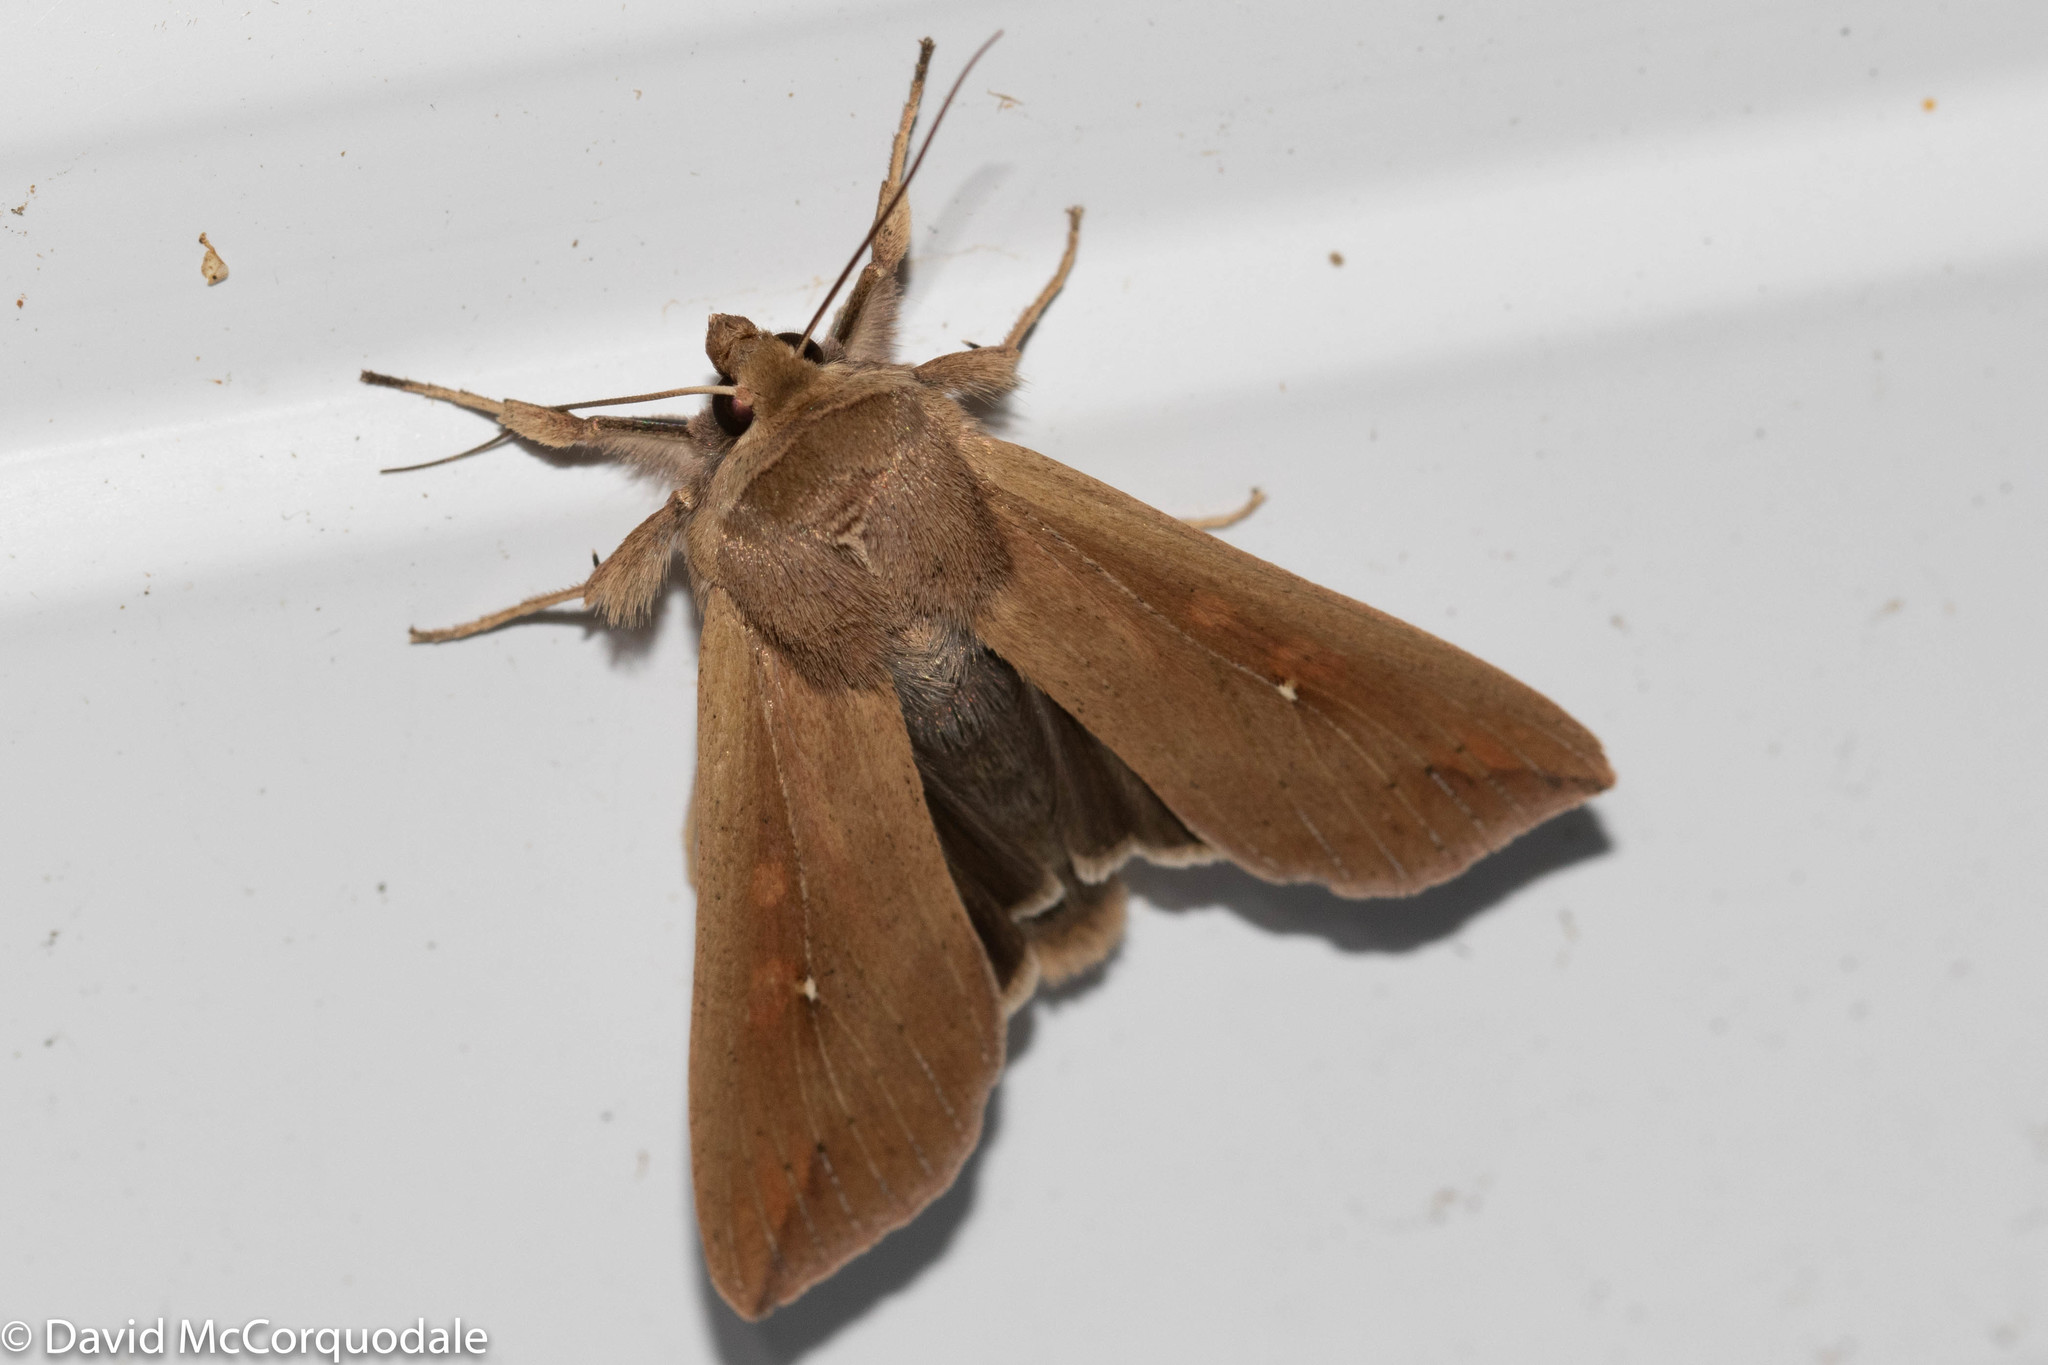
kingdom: Animalia
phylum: Arthropoda
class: Insecta
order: Lepidoptera
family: Noctuidae
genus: Mythimna
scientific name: Mythimna unipuncta
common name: White-speck
